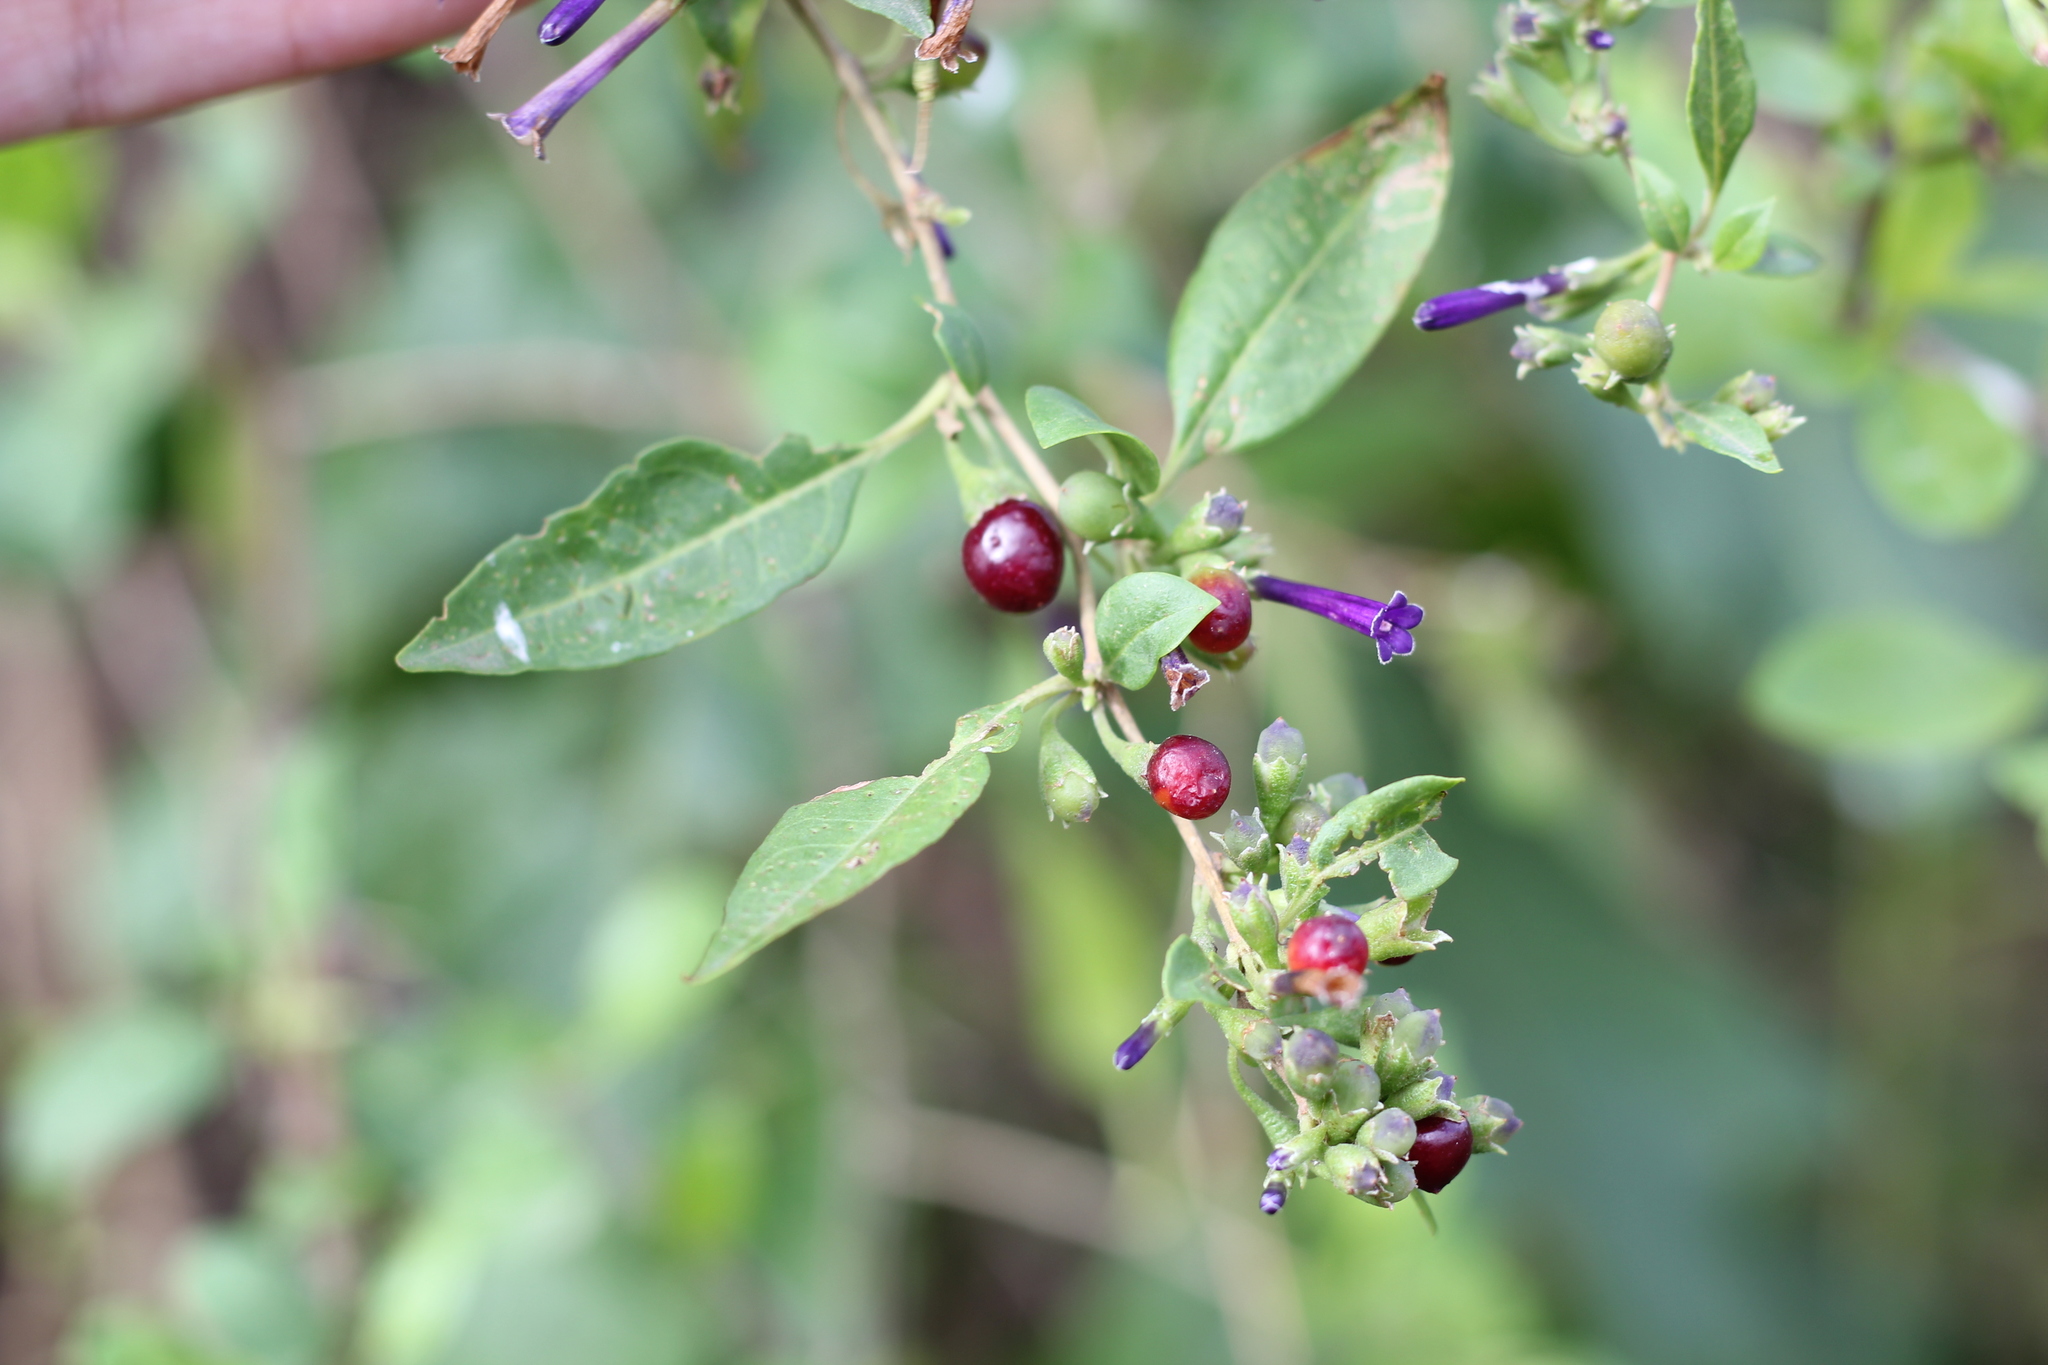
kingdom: Plantae
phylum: Tracheophyta
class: Magnoliopsida
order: Solanales
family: Solanaceae
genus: Lycium
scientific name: Lycium cestroides
